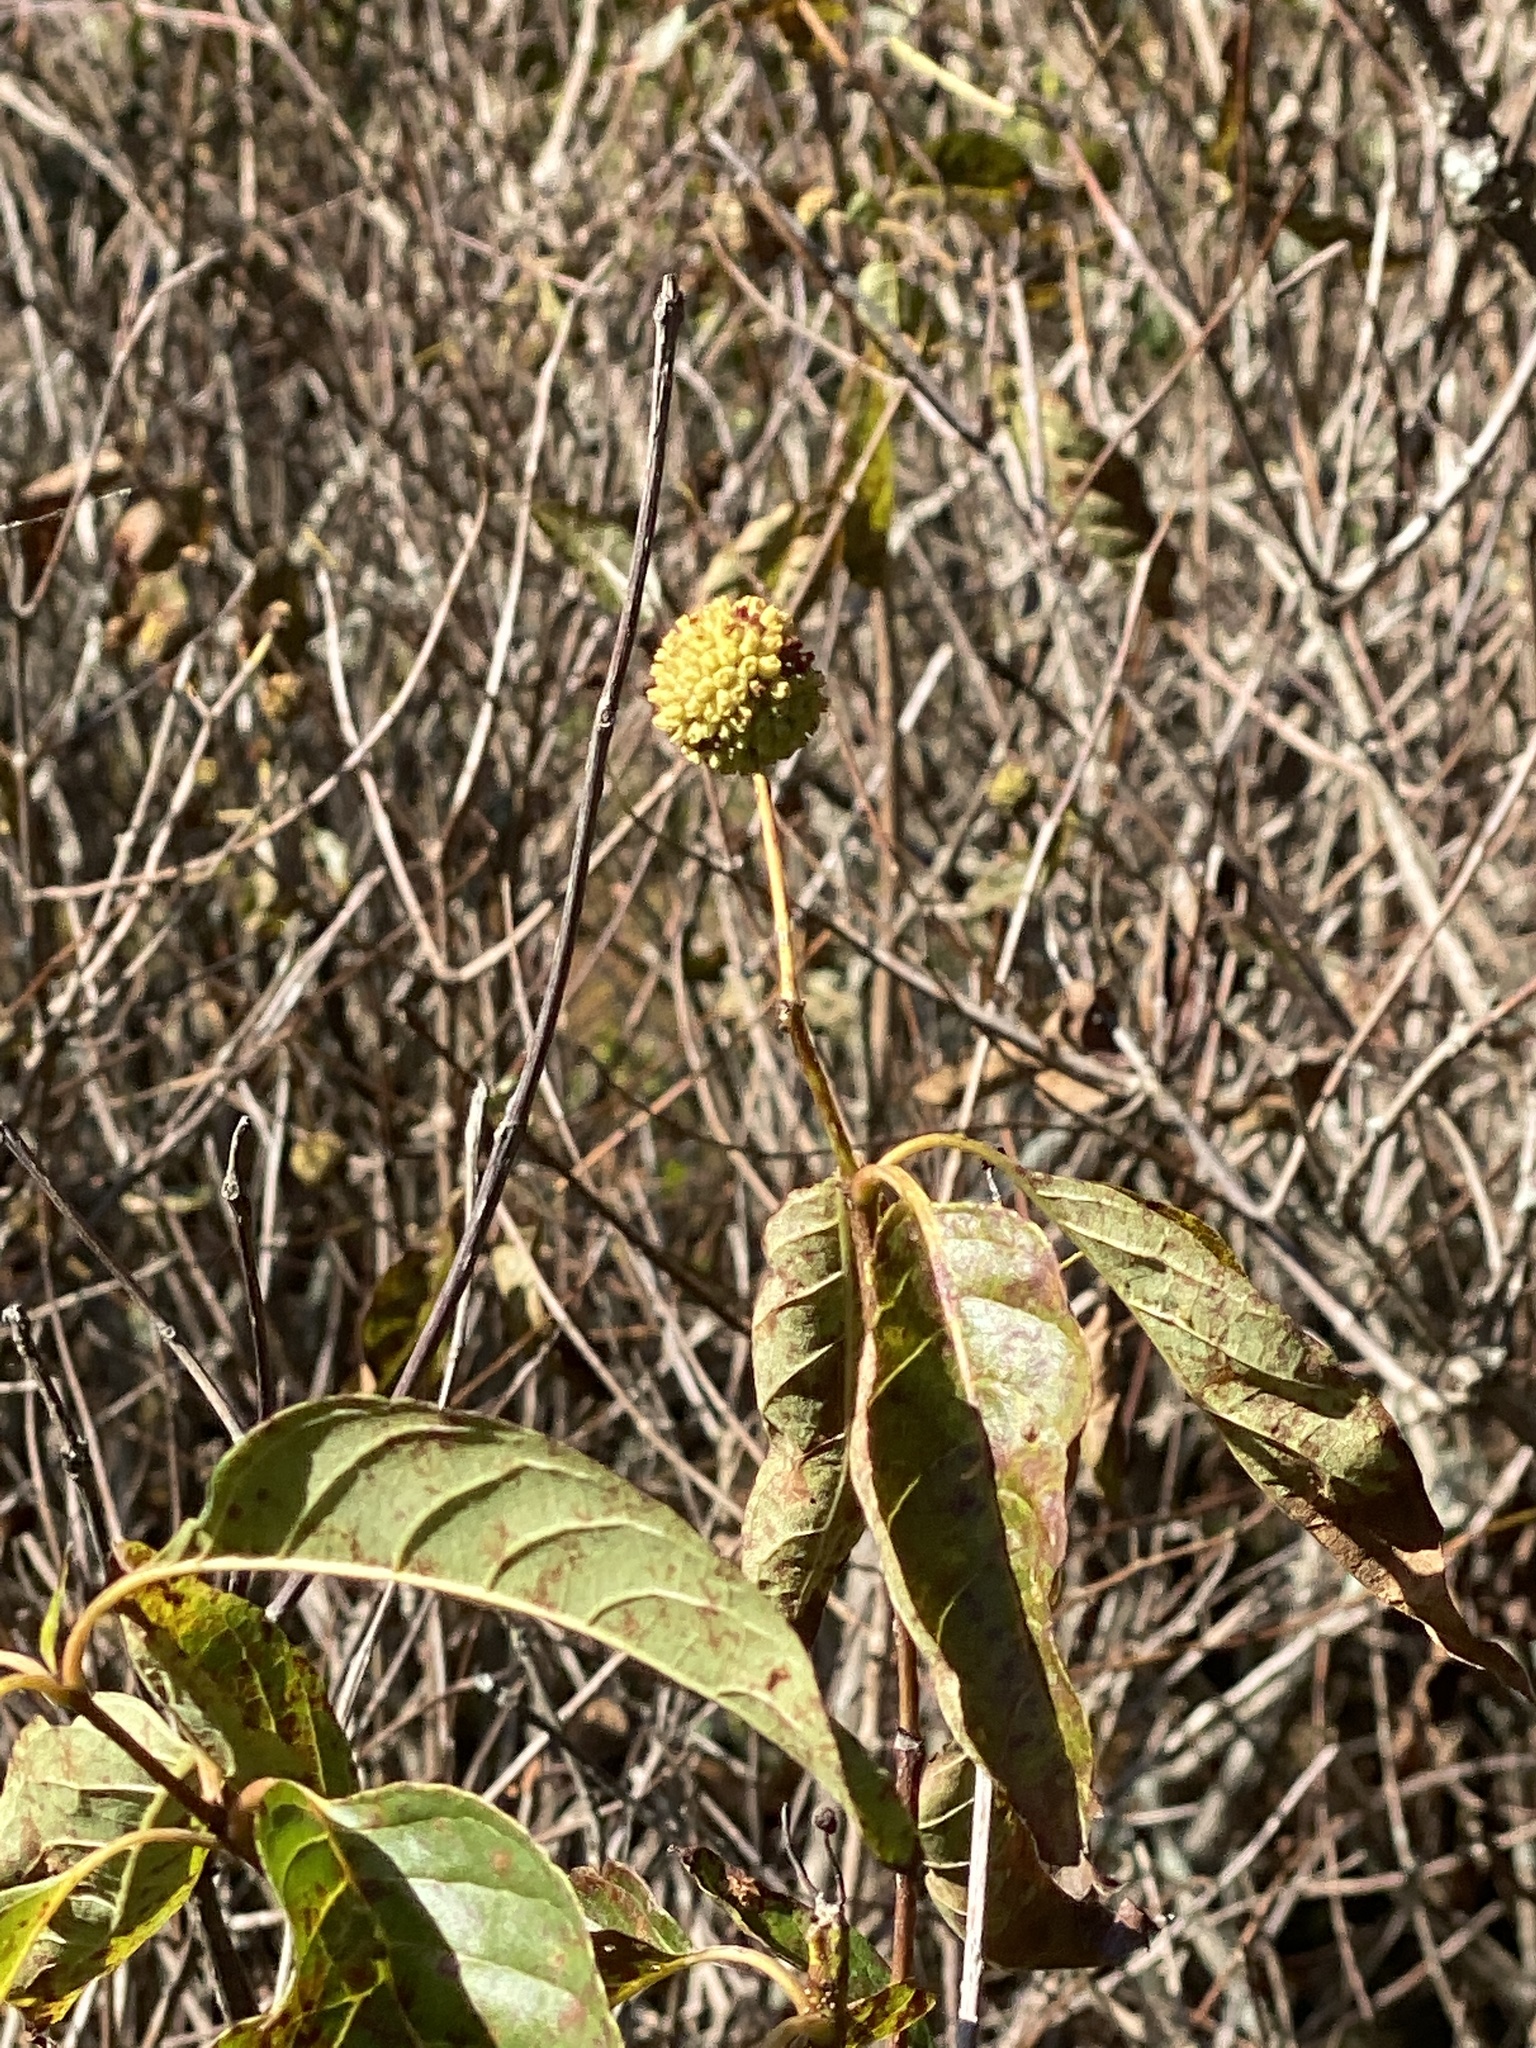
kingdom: Plantae
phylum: Tracheophyta
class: Magnoliopsida
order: Gentianales
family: Rubiaceae
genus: Cephalanthus
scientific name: Cephalanthus occidentalis
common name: Button-willow
